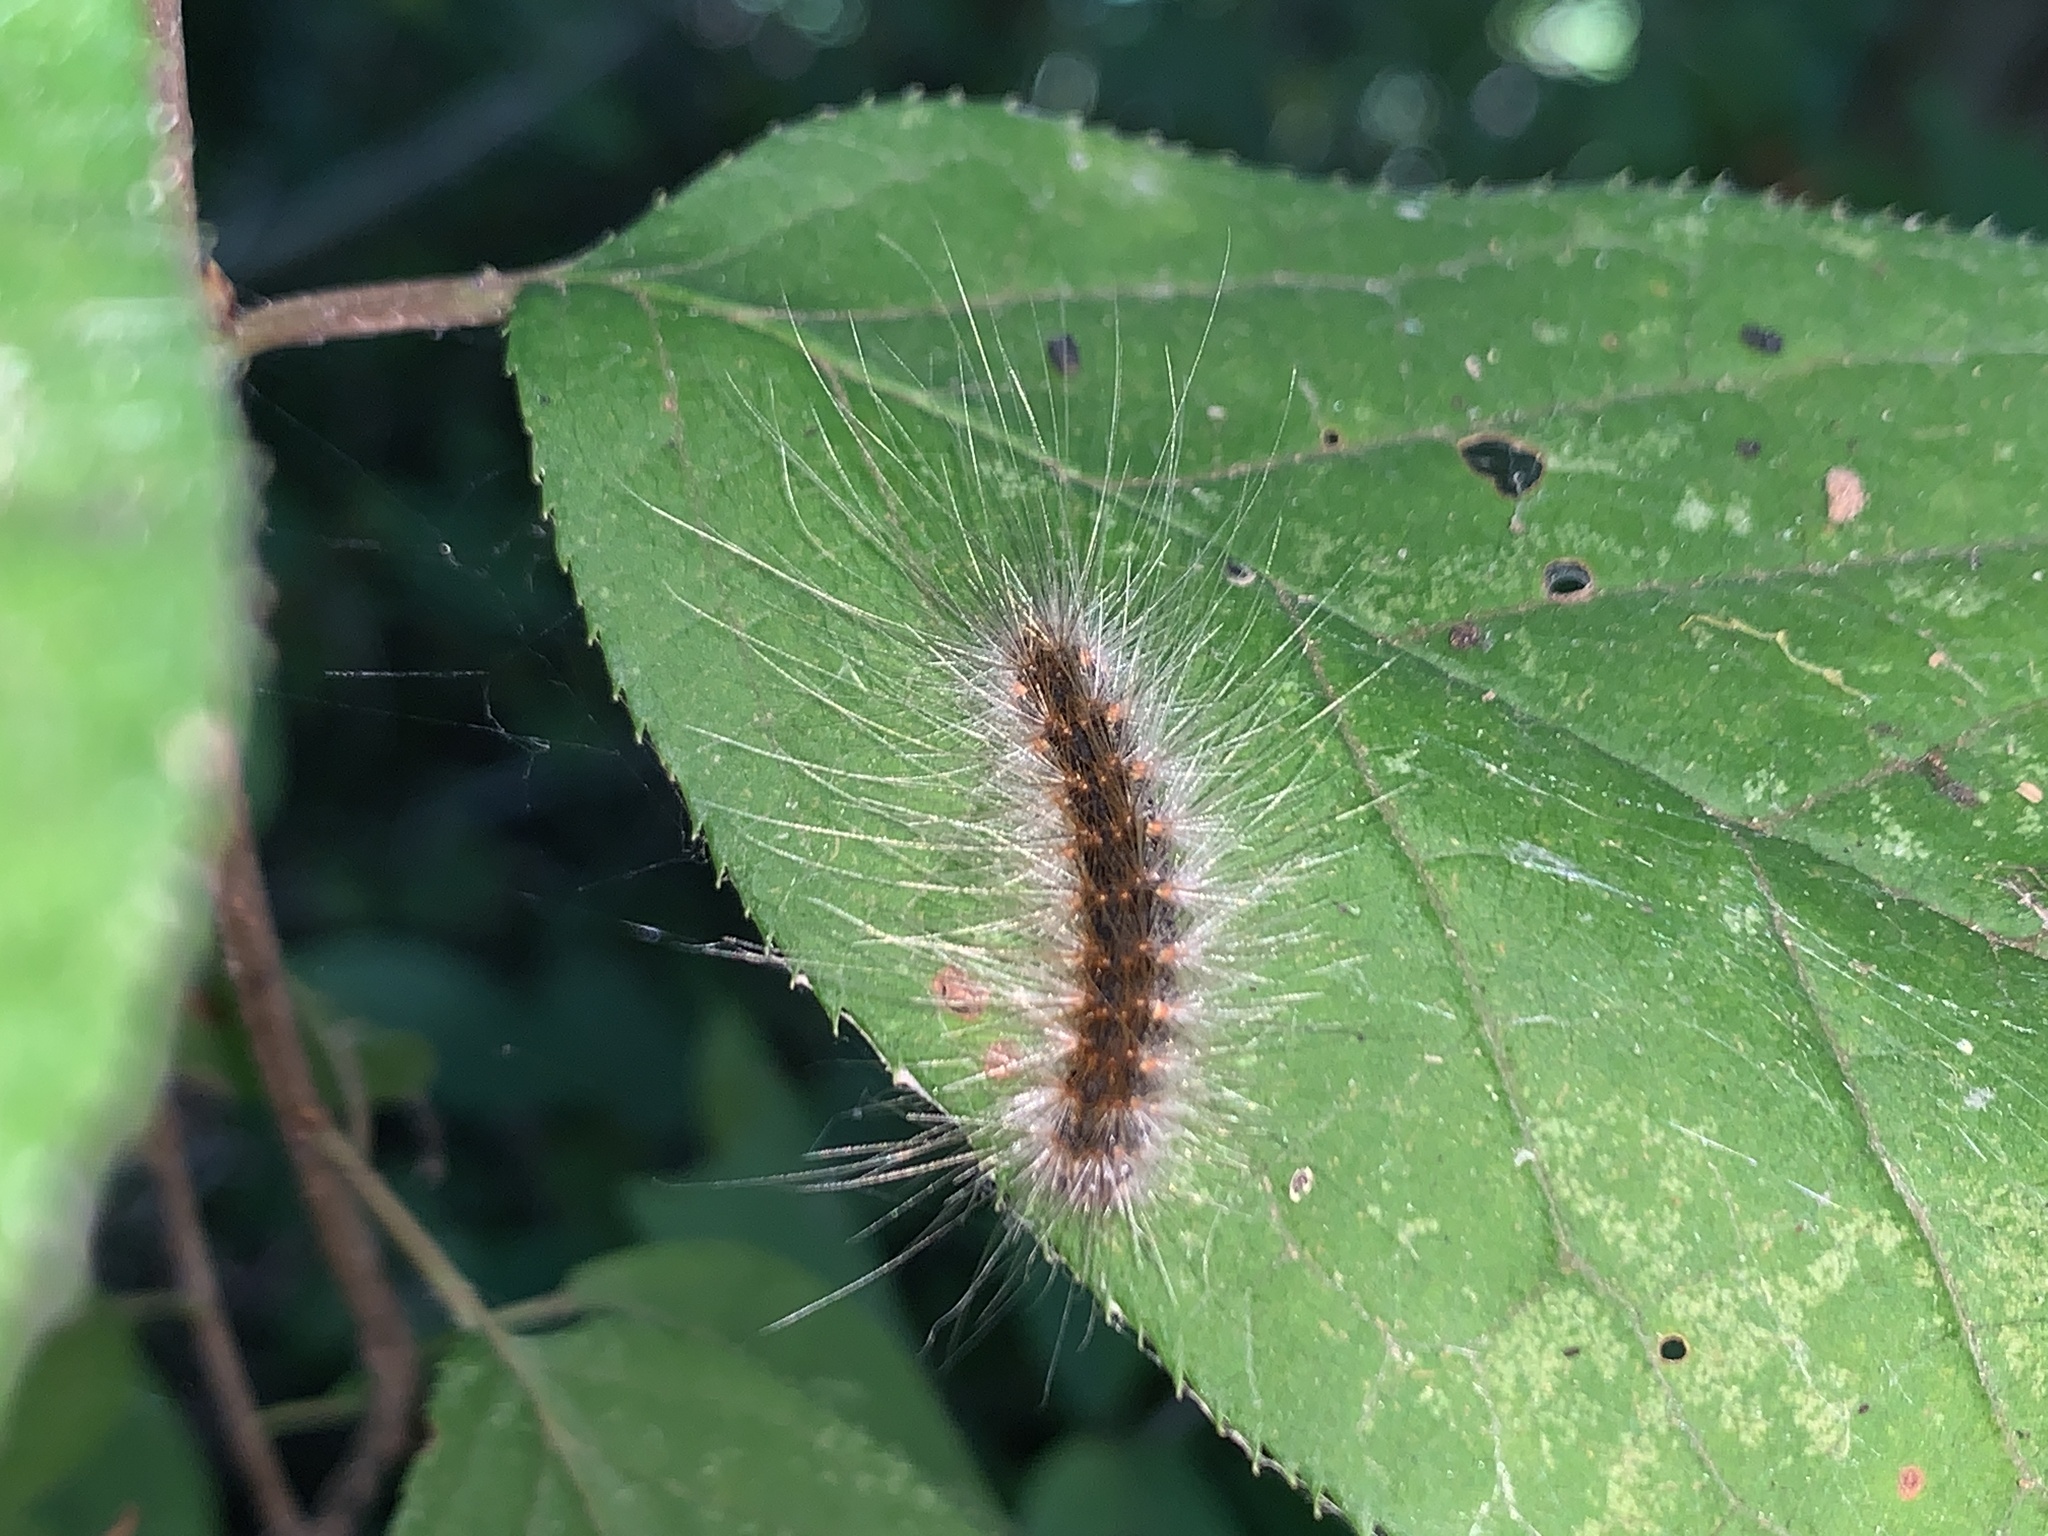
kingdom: Animalia
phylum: Arthropoda
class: Insecta
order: Lepidoptera
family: Erebidae
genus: Hyphantria
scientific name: Hyphantria cunea
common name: American white moth
